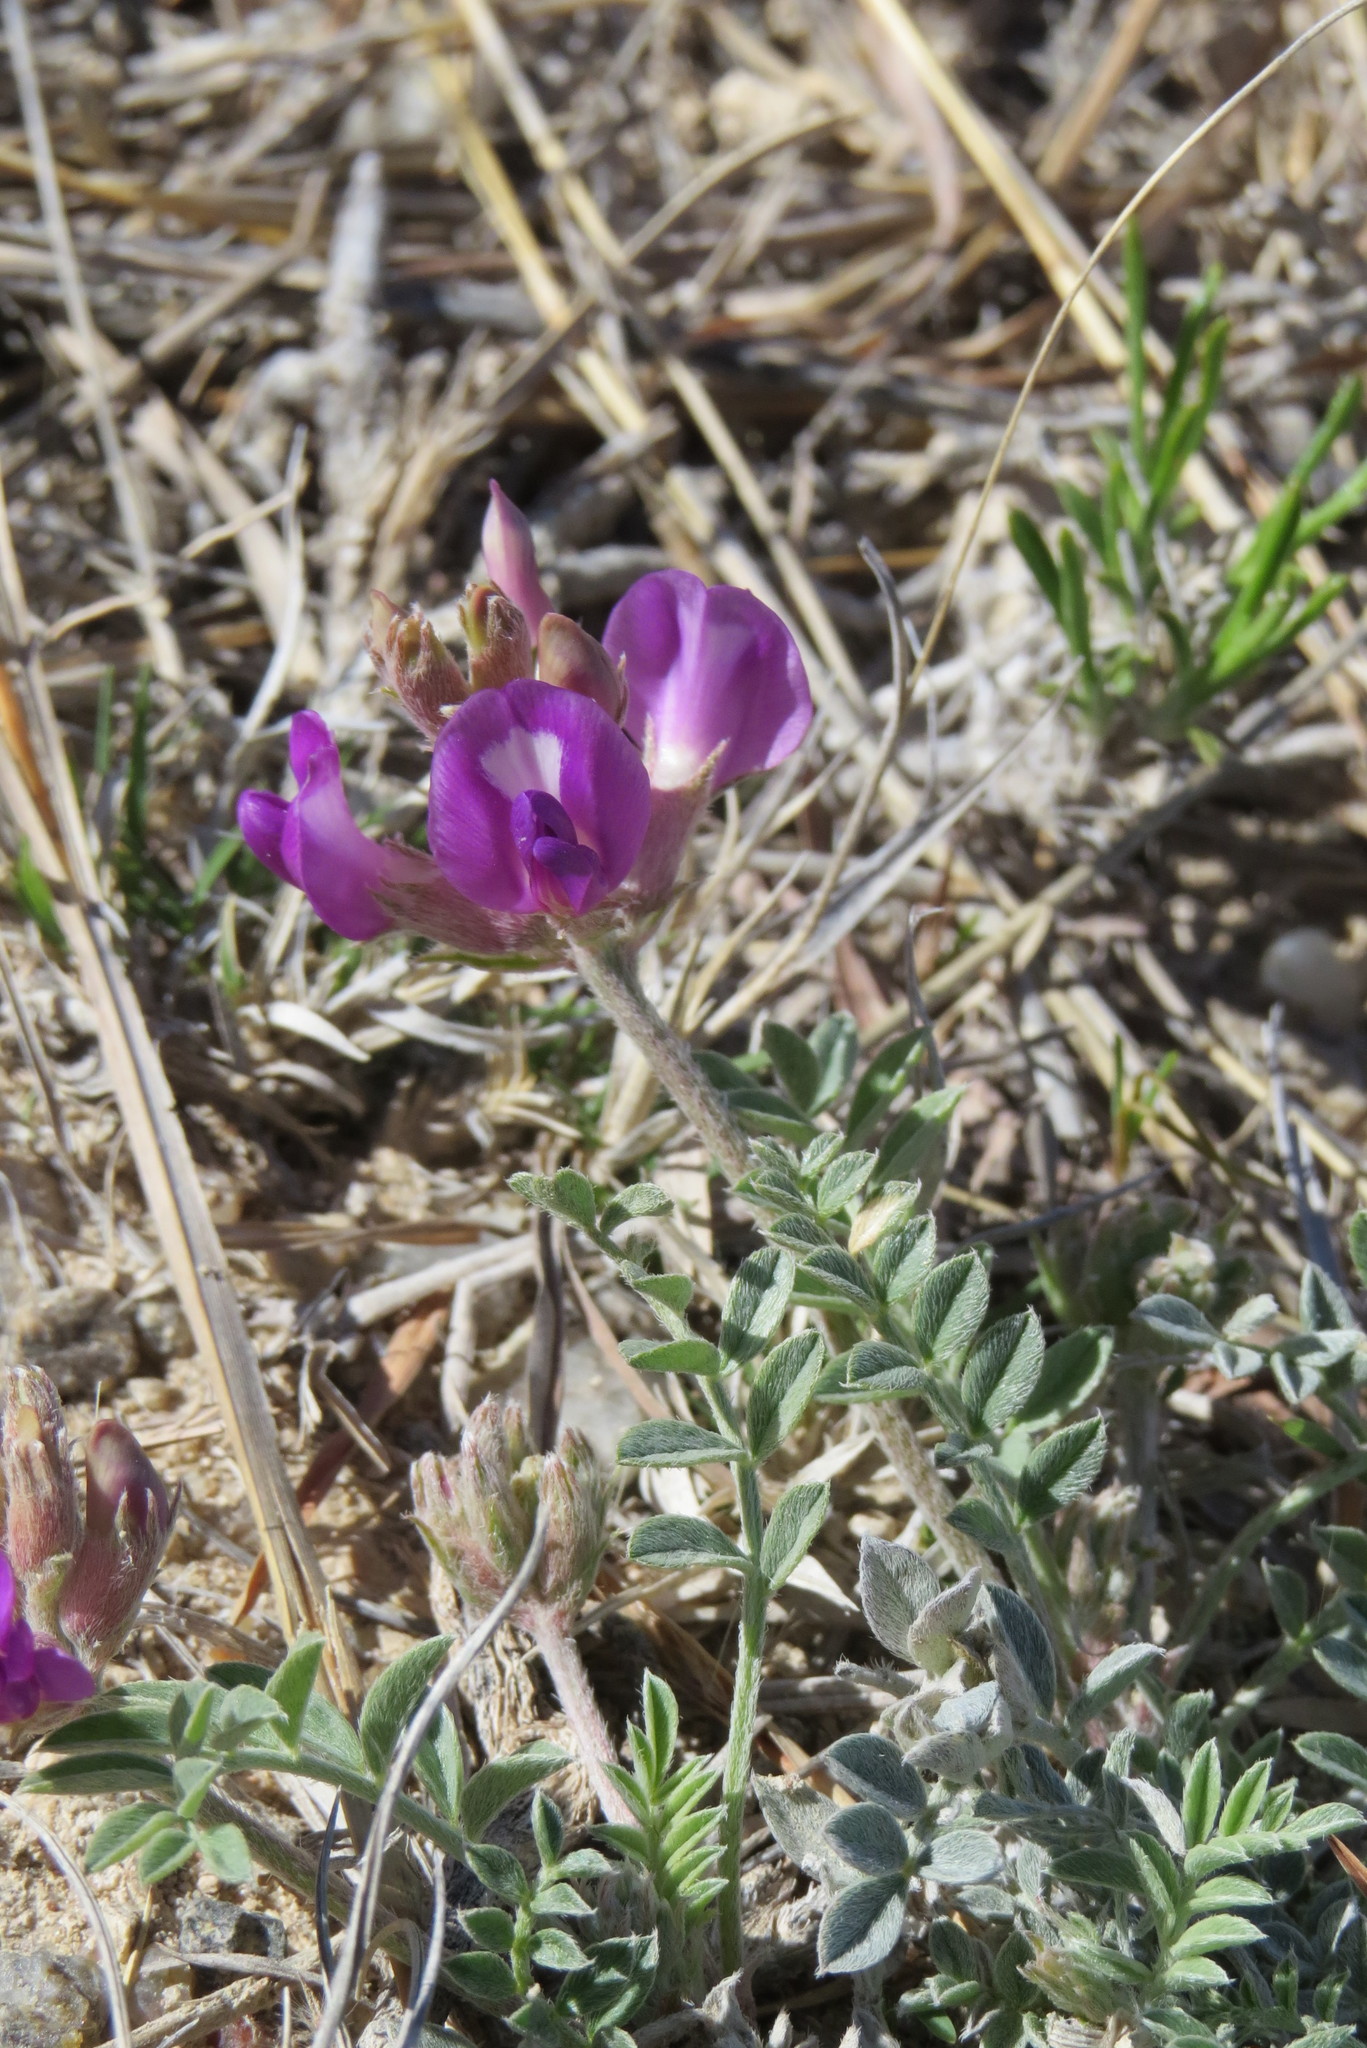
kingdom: Plantae
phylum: Tracheophyta
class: Magnoliopsida
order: Fabales
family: Fabaceae
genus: Astragalus
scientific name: Astragalus missouriensis
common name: Missouri milk-vetch
